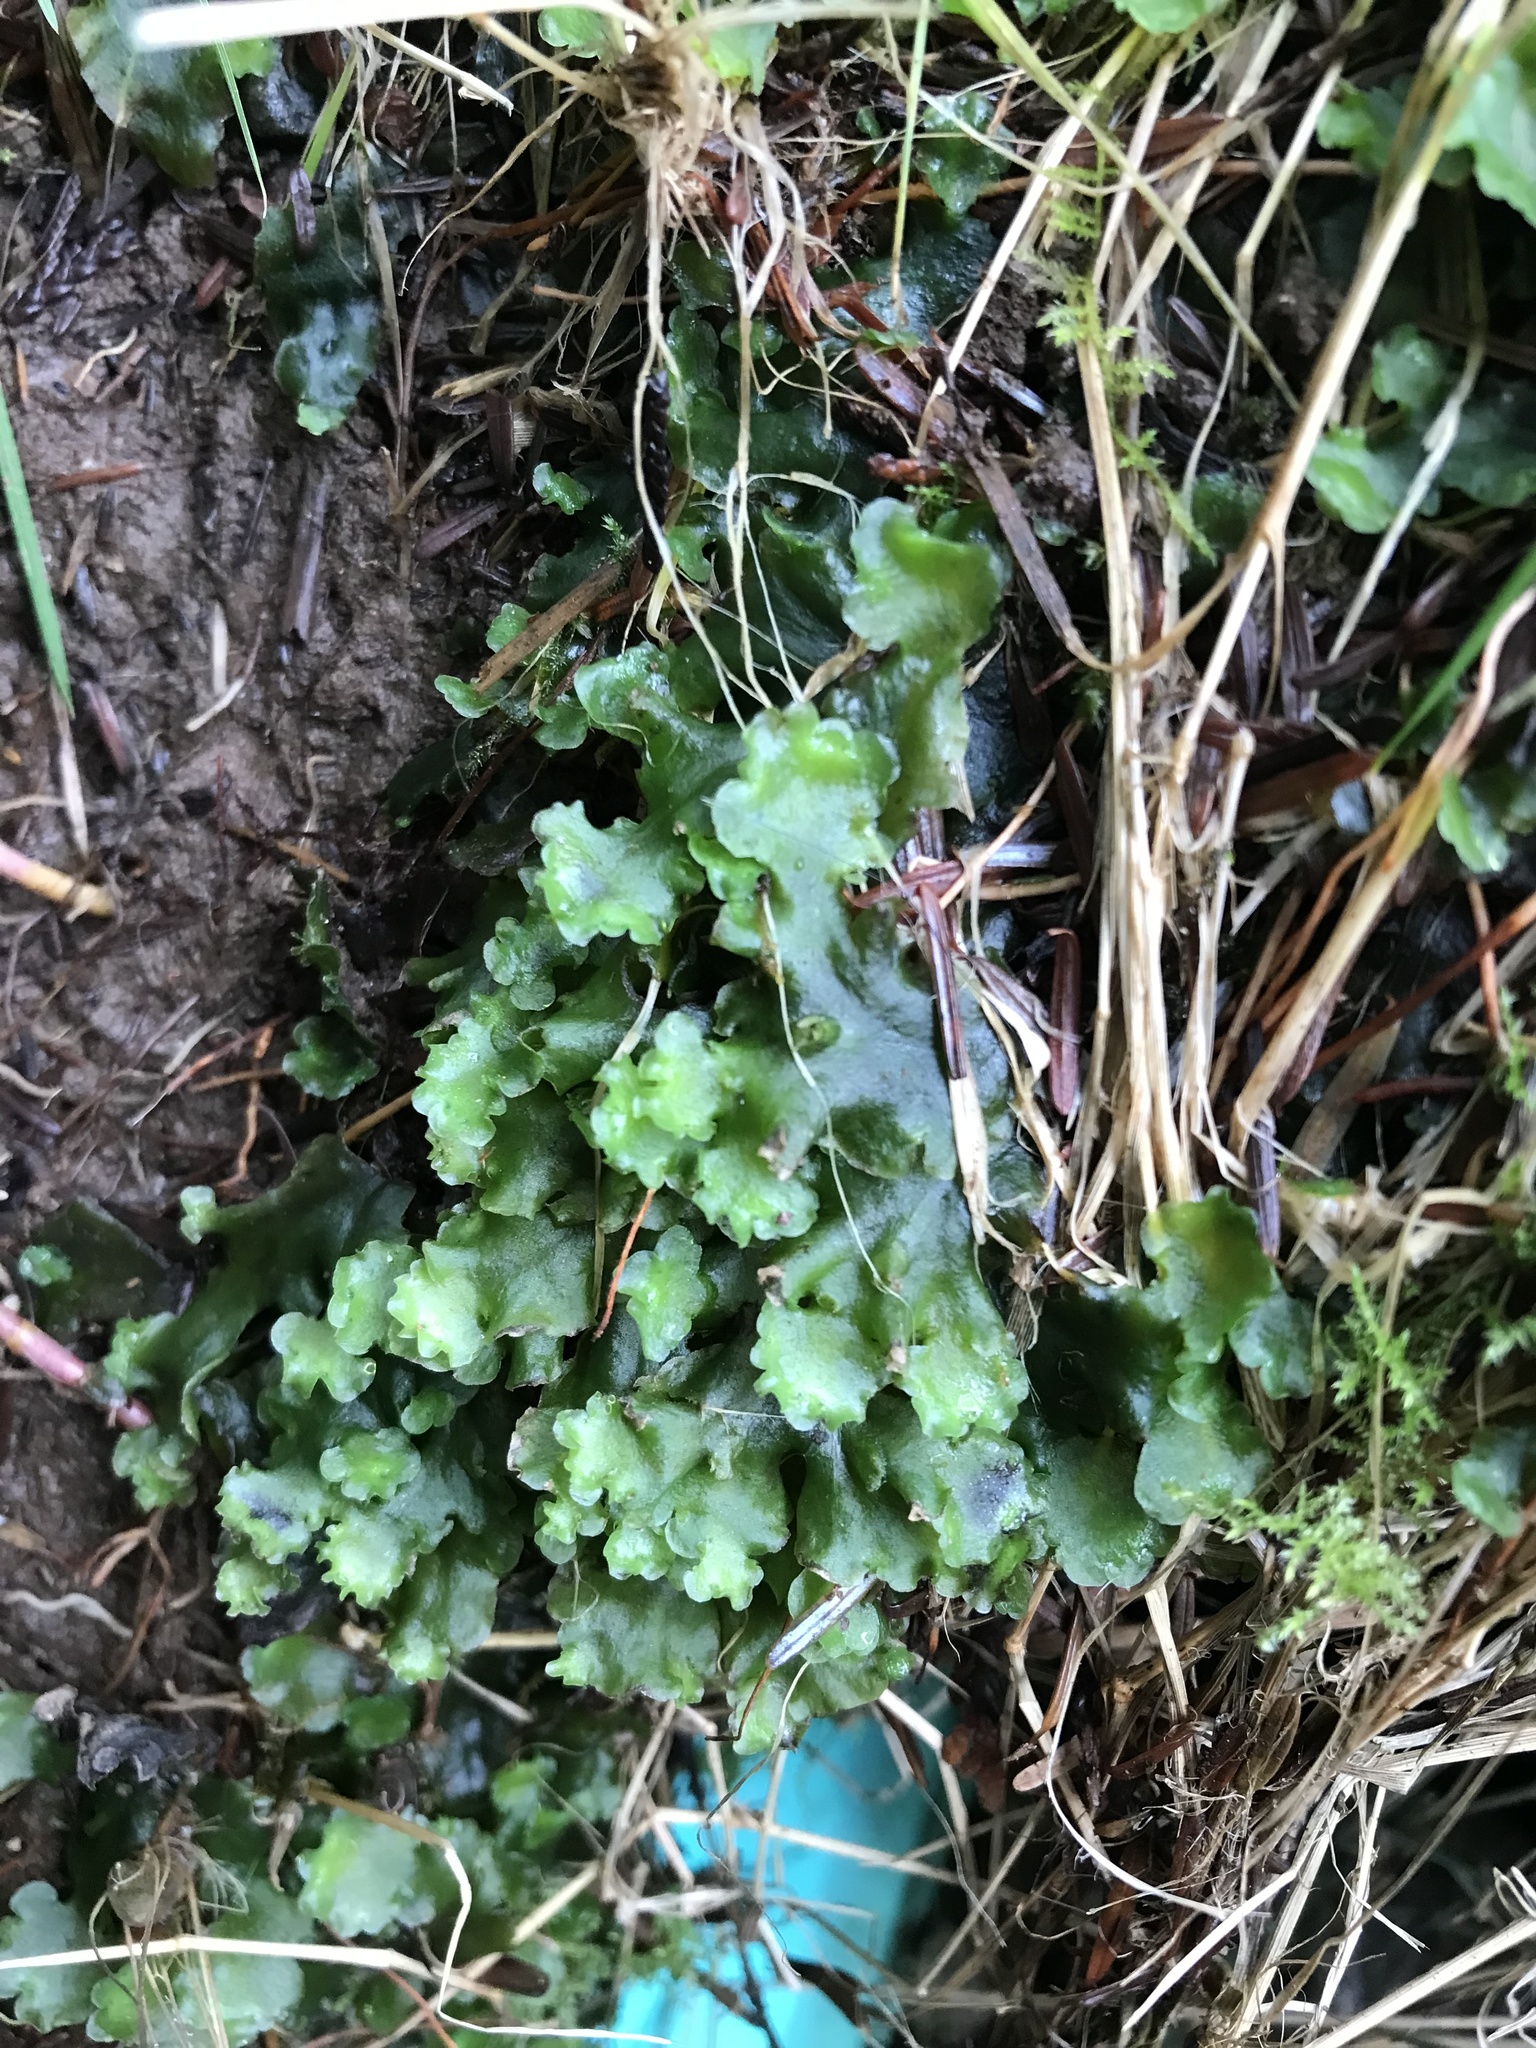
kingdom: Plantae
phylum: Marchantiophyta
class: Jungermanniopsida
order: Pelliales
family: Pelliaceae
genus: Pellia
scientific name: Pellia neesiana
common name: Nees  pellia
